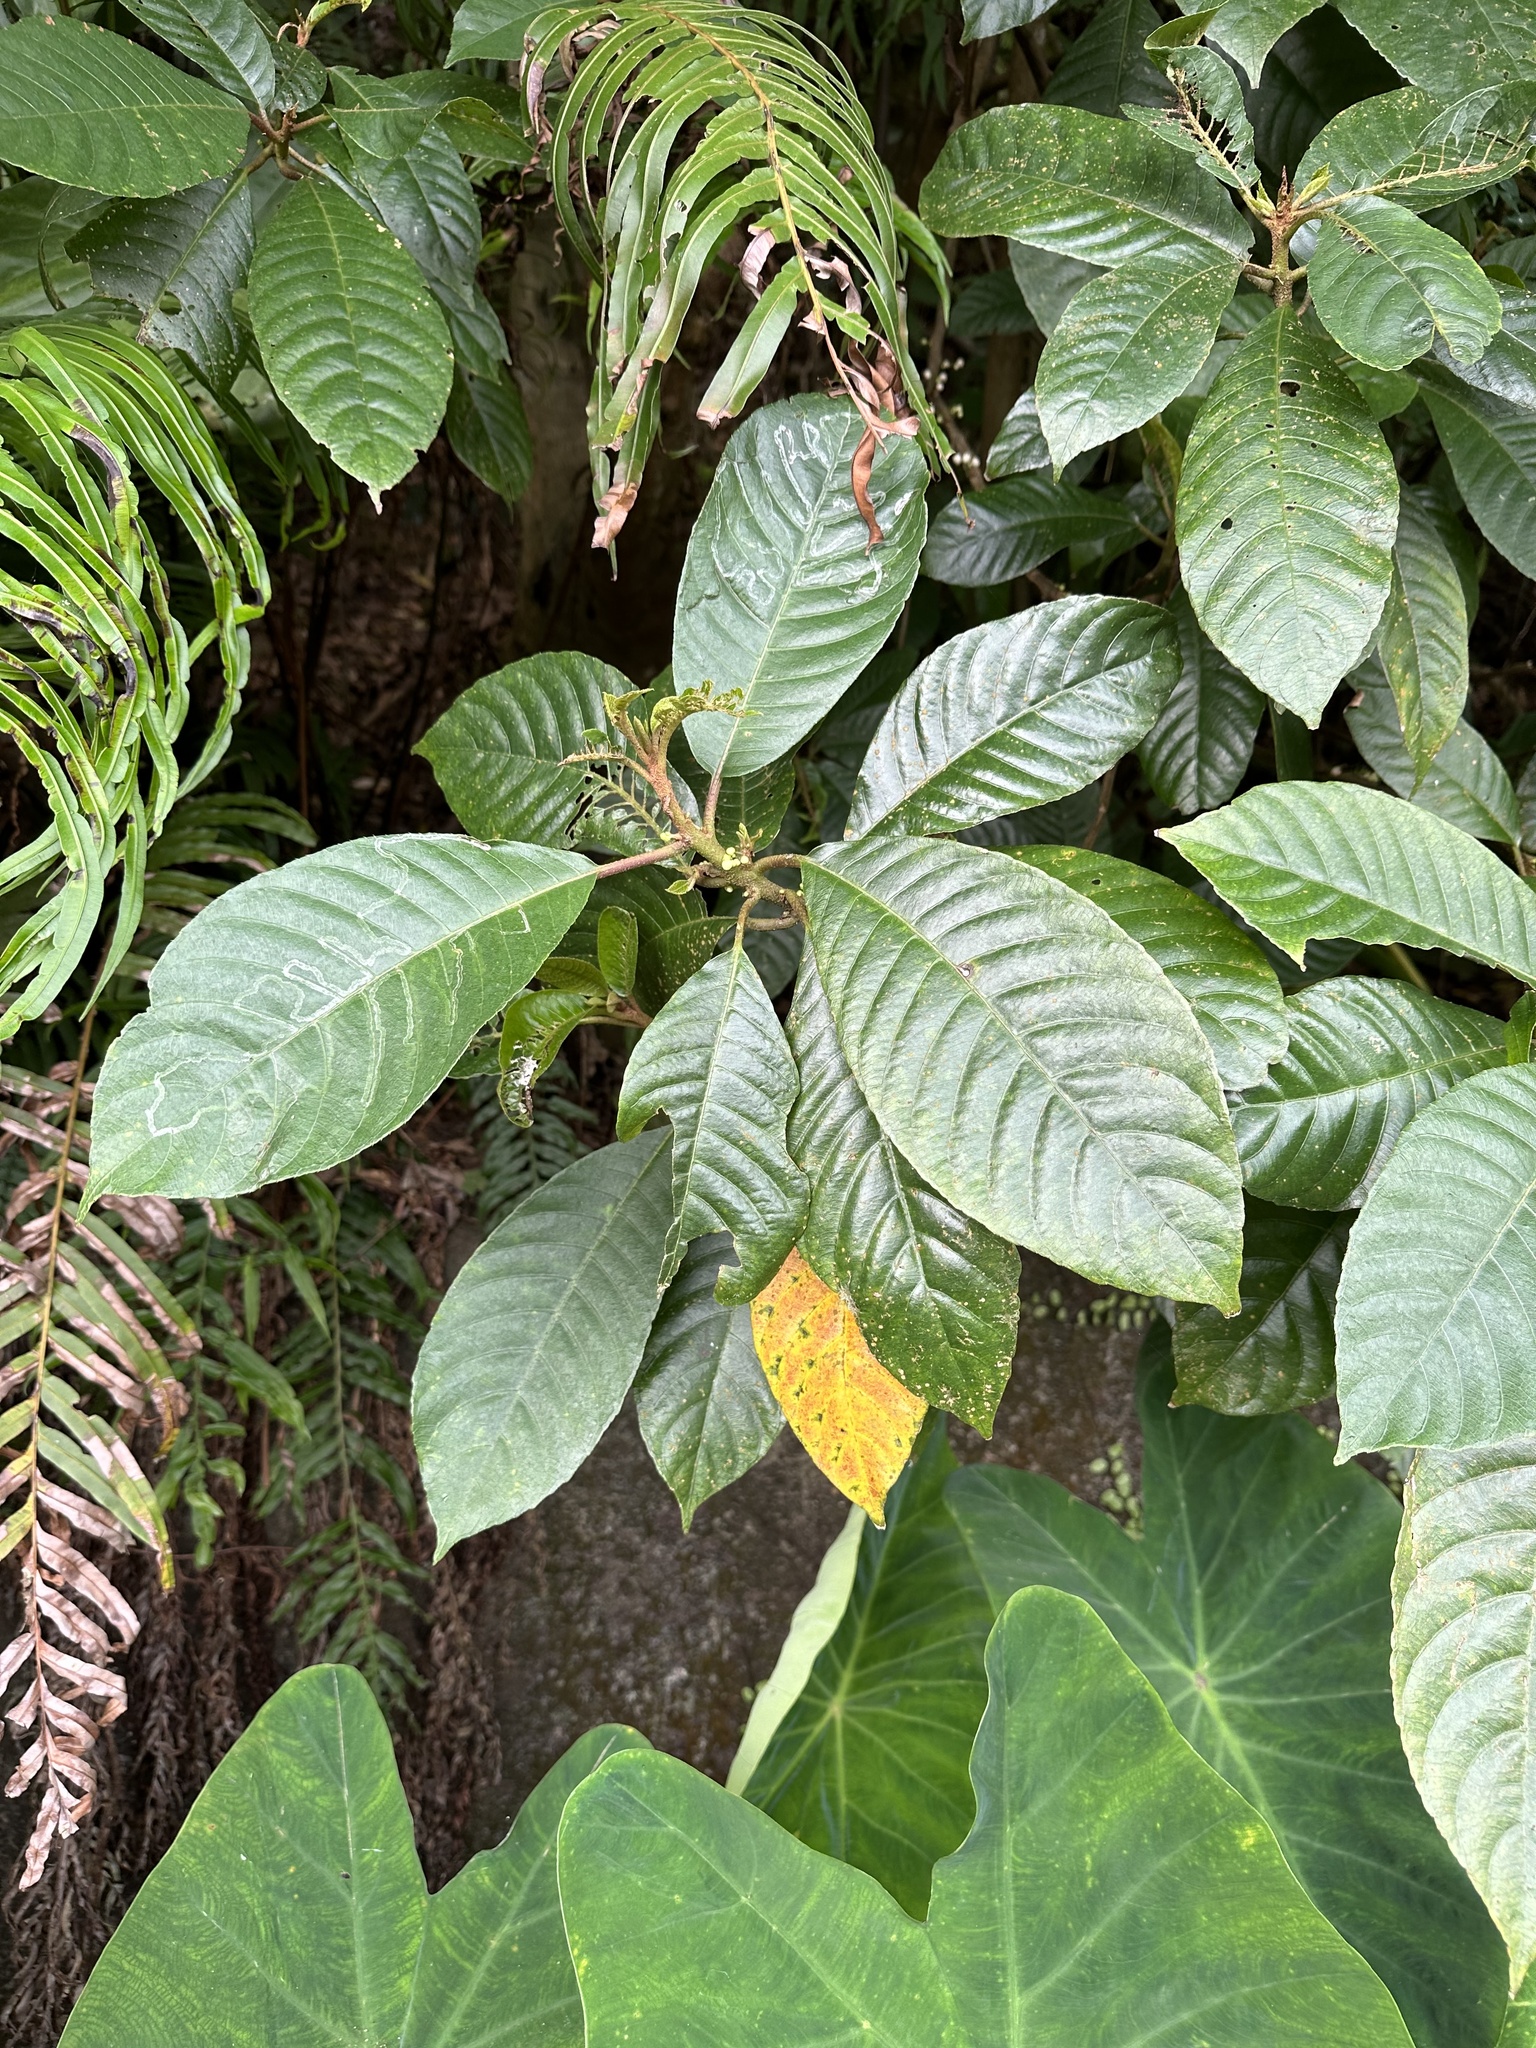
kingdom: Plantae
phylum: Tracheophyta
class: Magnoliopsida
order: Ericales
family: Actinidiaceae
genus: Saurauia
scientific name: Saurauia tristyla
